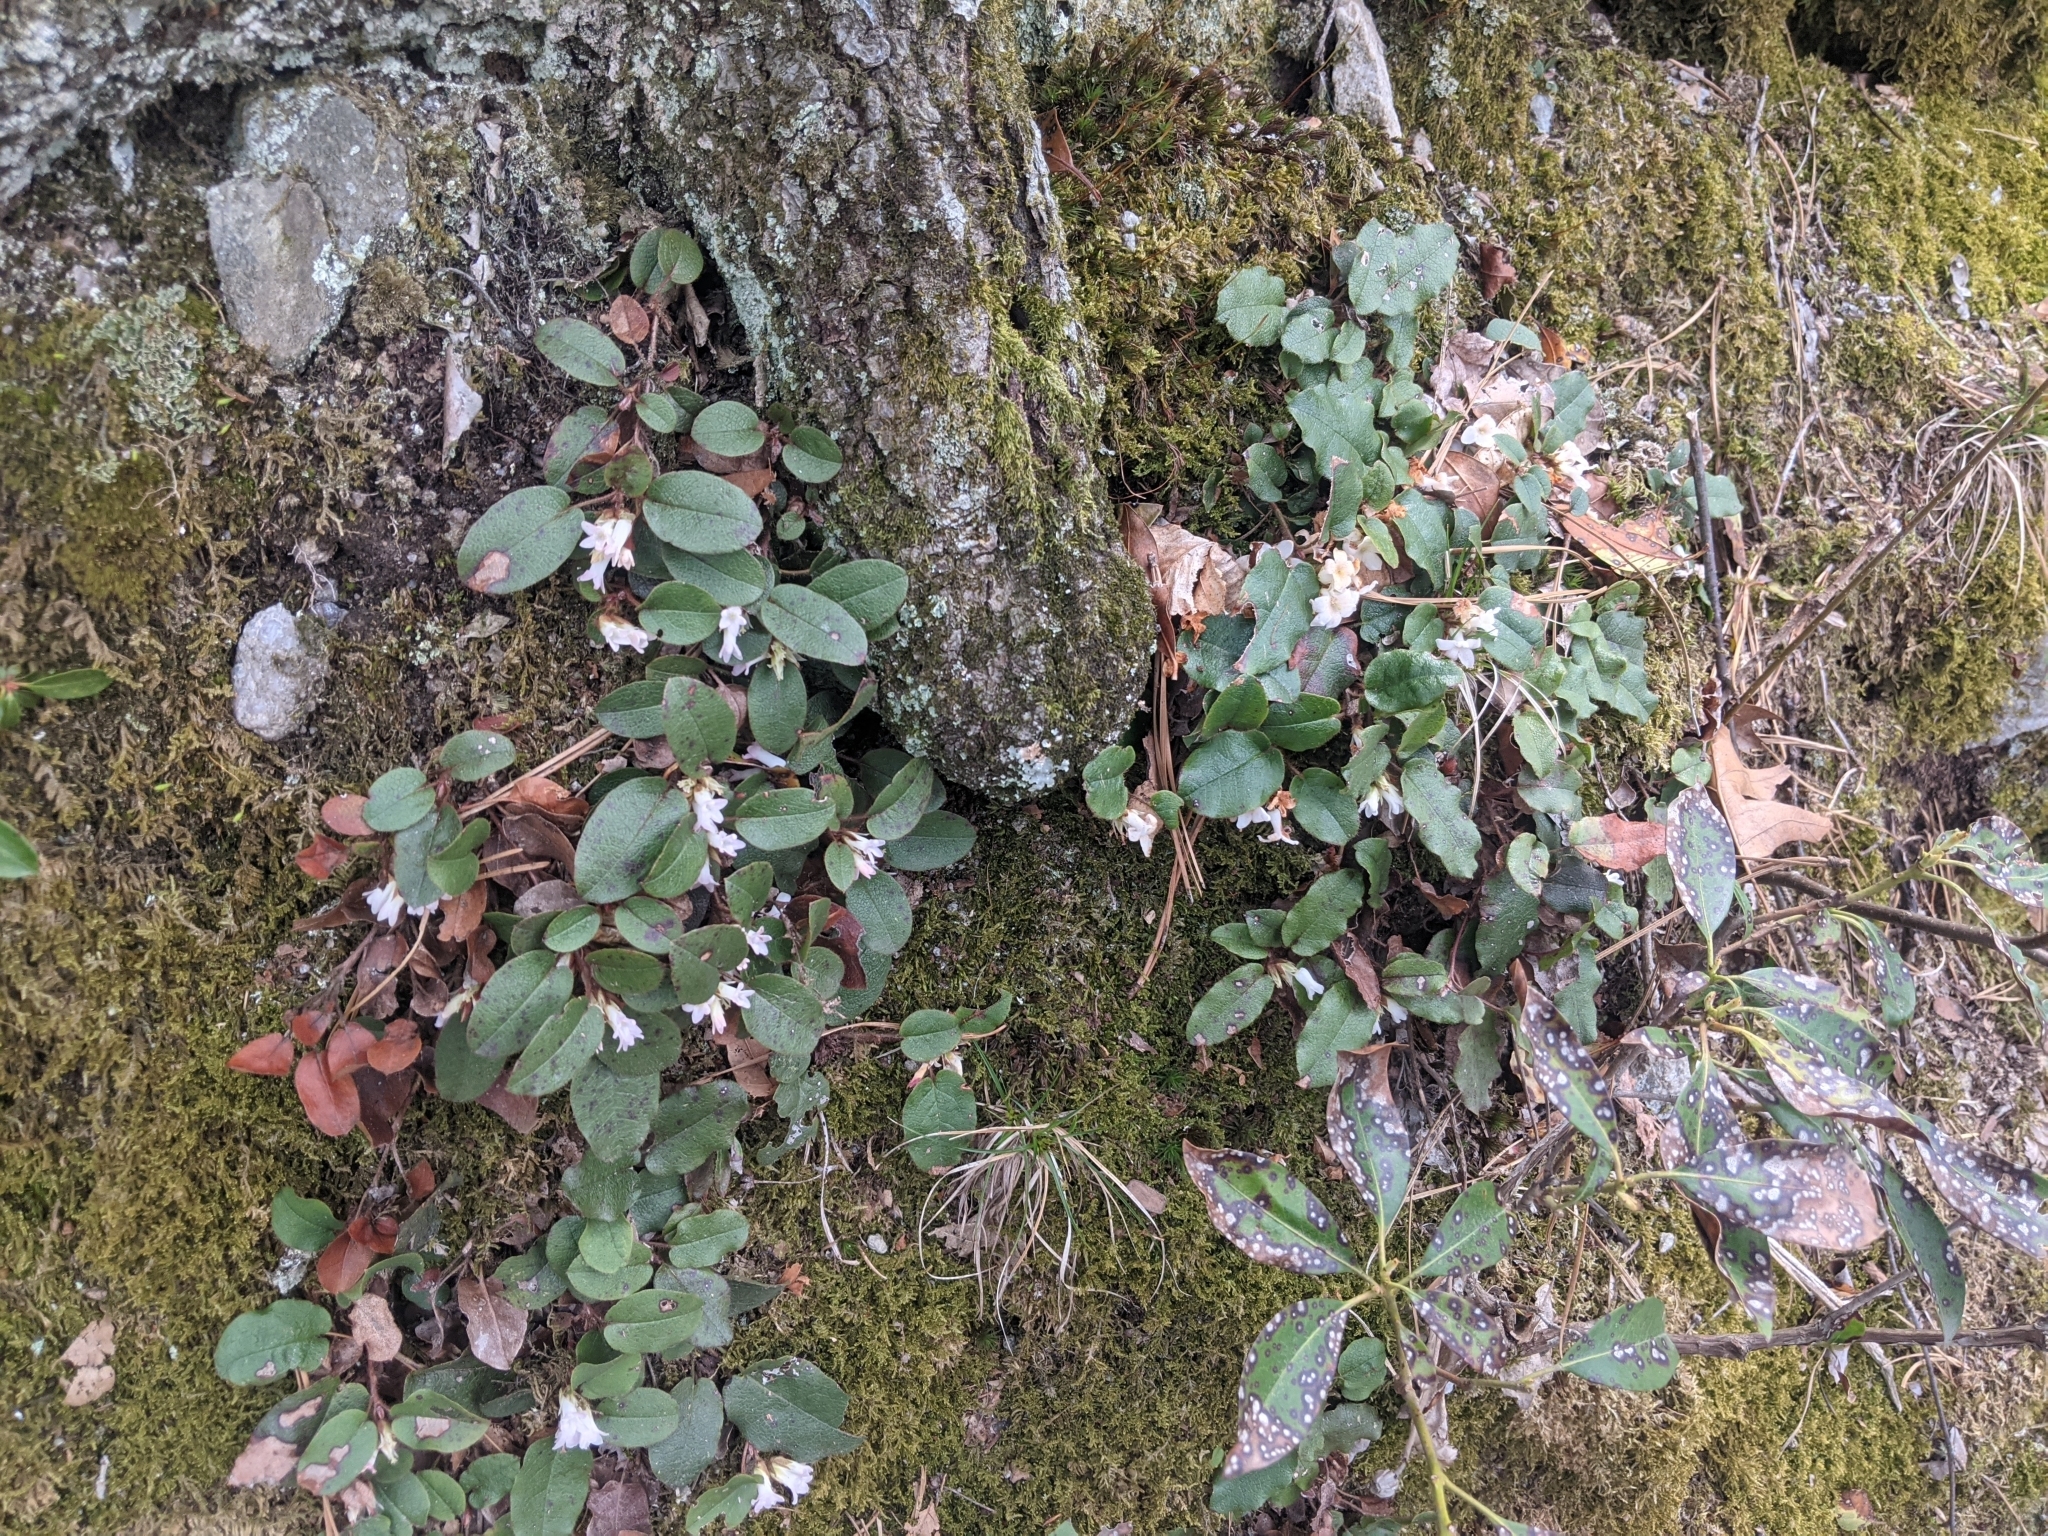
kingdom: Plantae
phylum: Tracheophyta
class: Magnoliopsida
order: Ericales
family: Ericaceae
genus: Epigaea
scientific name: Epigaea repens
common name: Gravelroot
